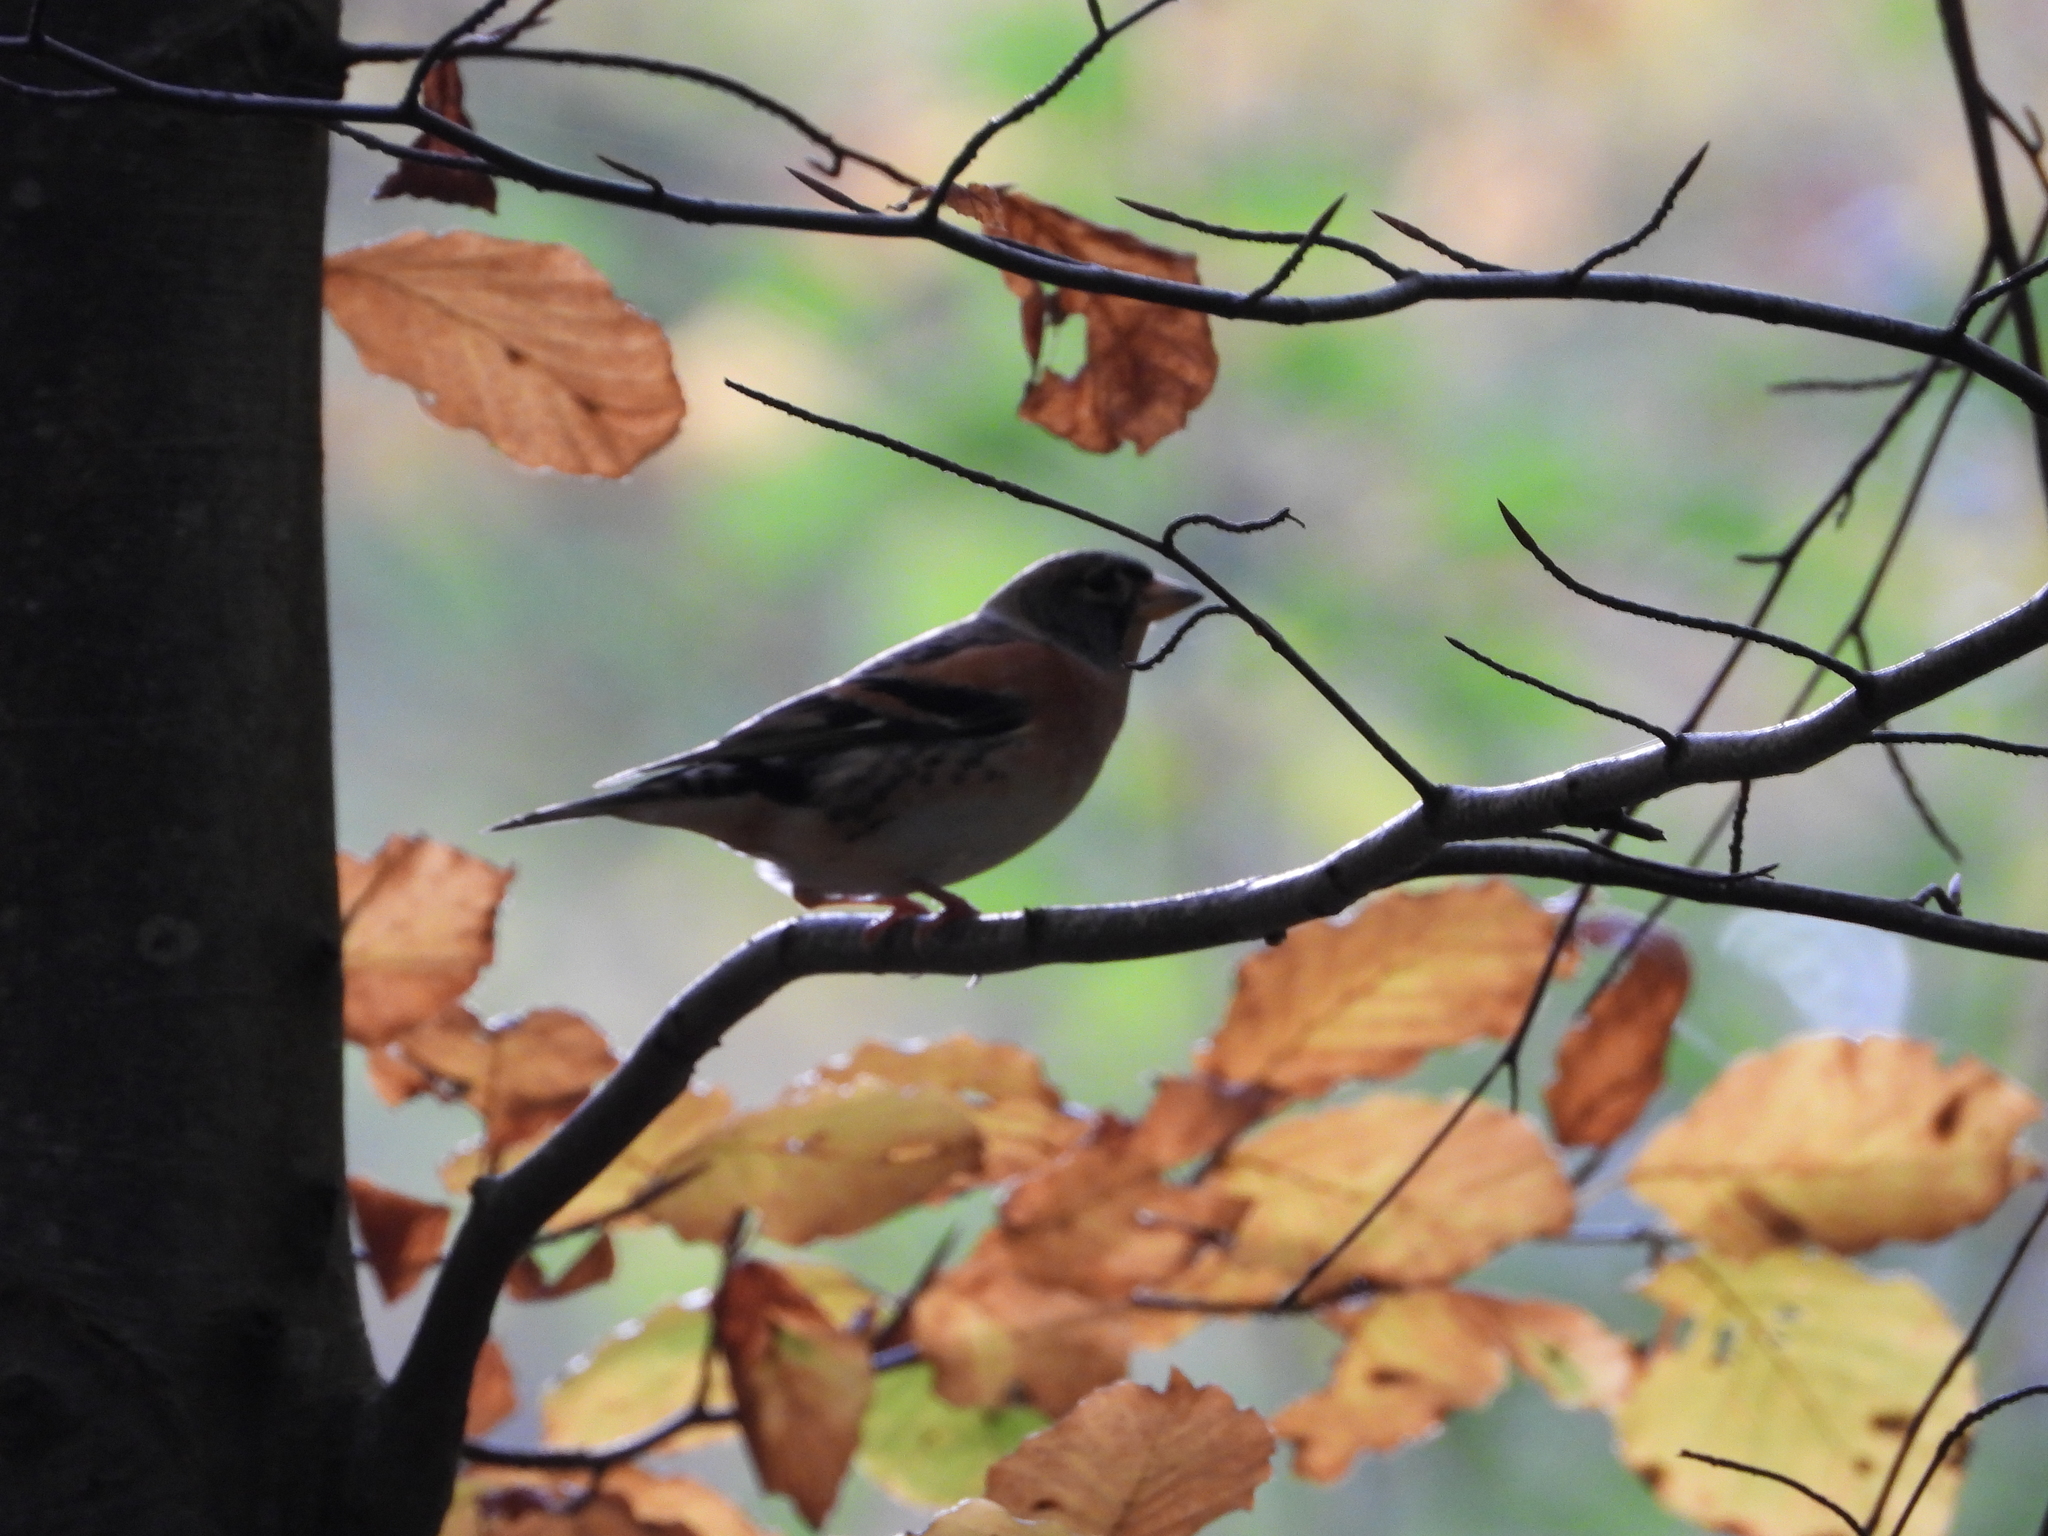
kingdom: Animalia
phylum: Chordata
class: Aves
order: Passeriformes
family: Fringillidae
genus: Fringilla
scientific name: Fringilla montifringilla
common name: Brambling
